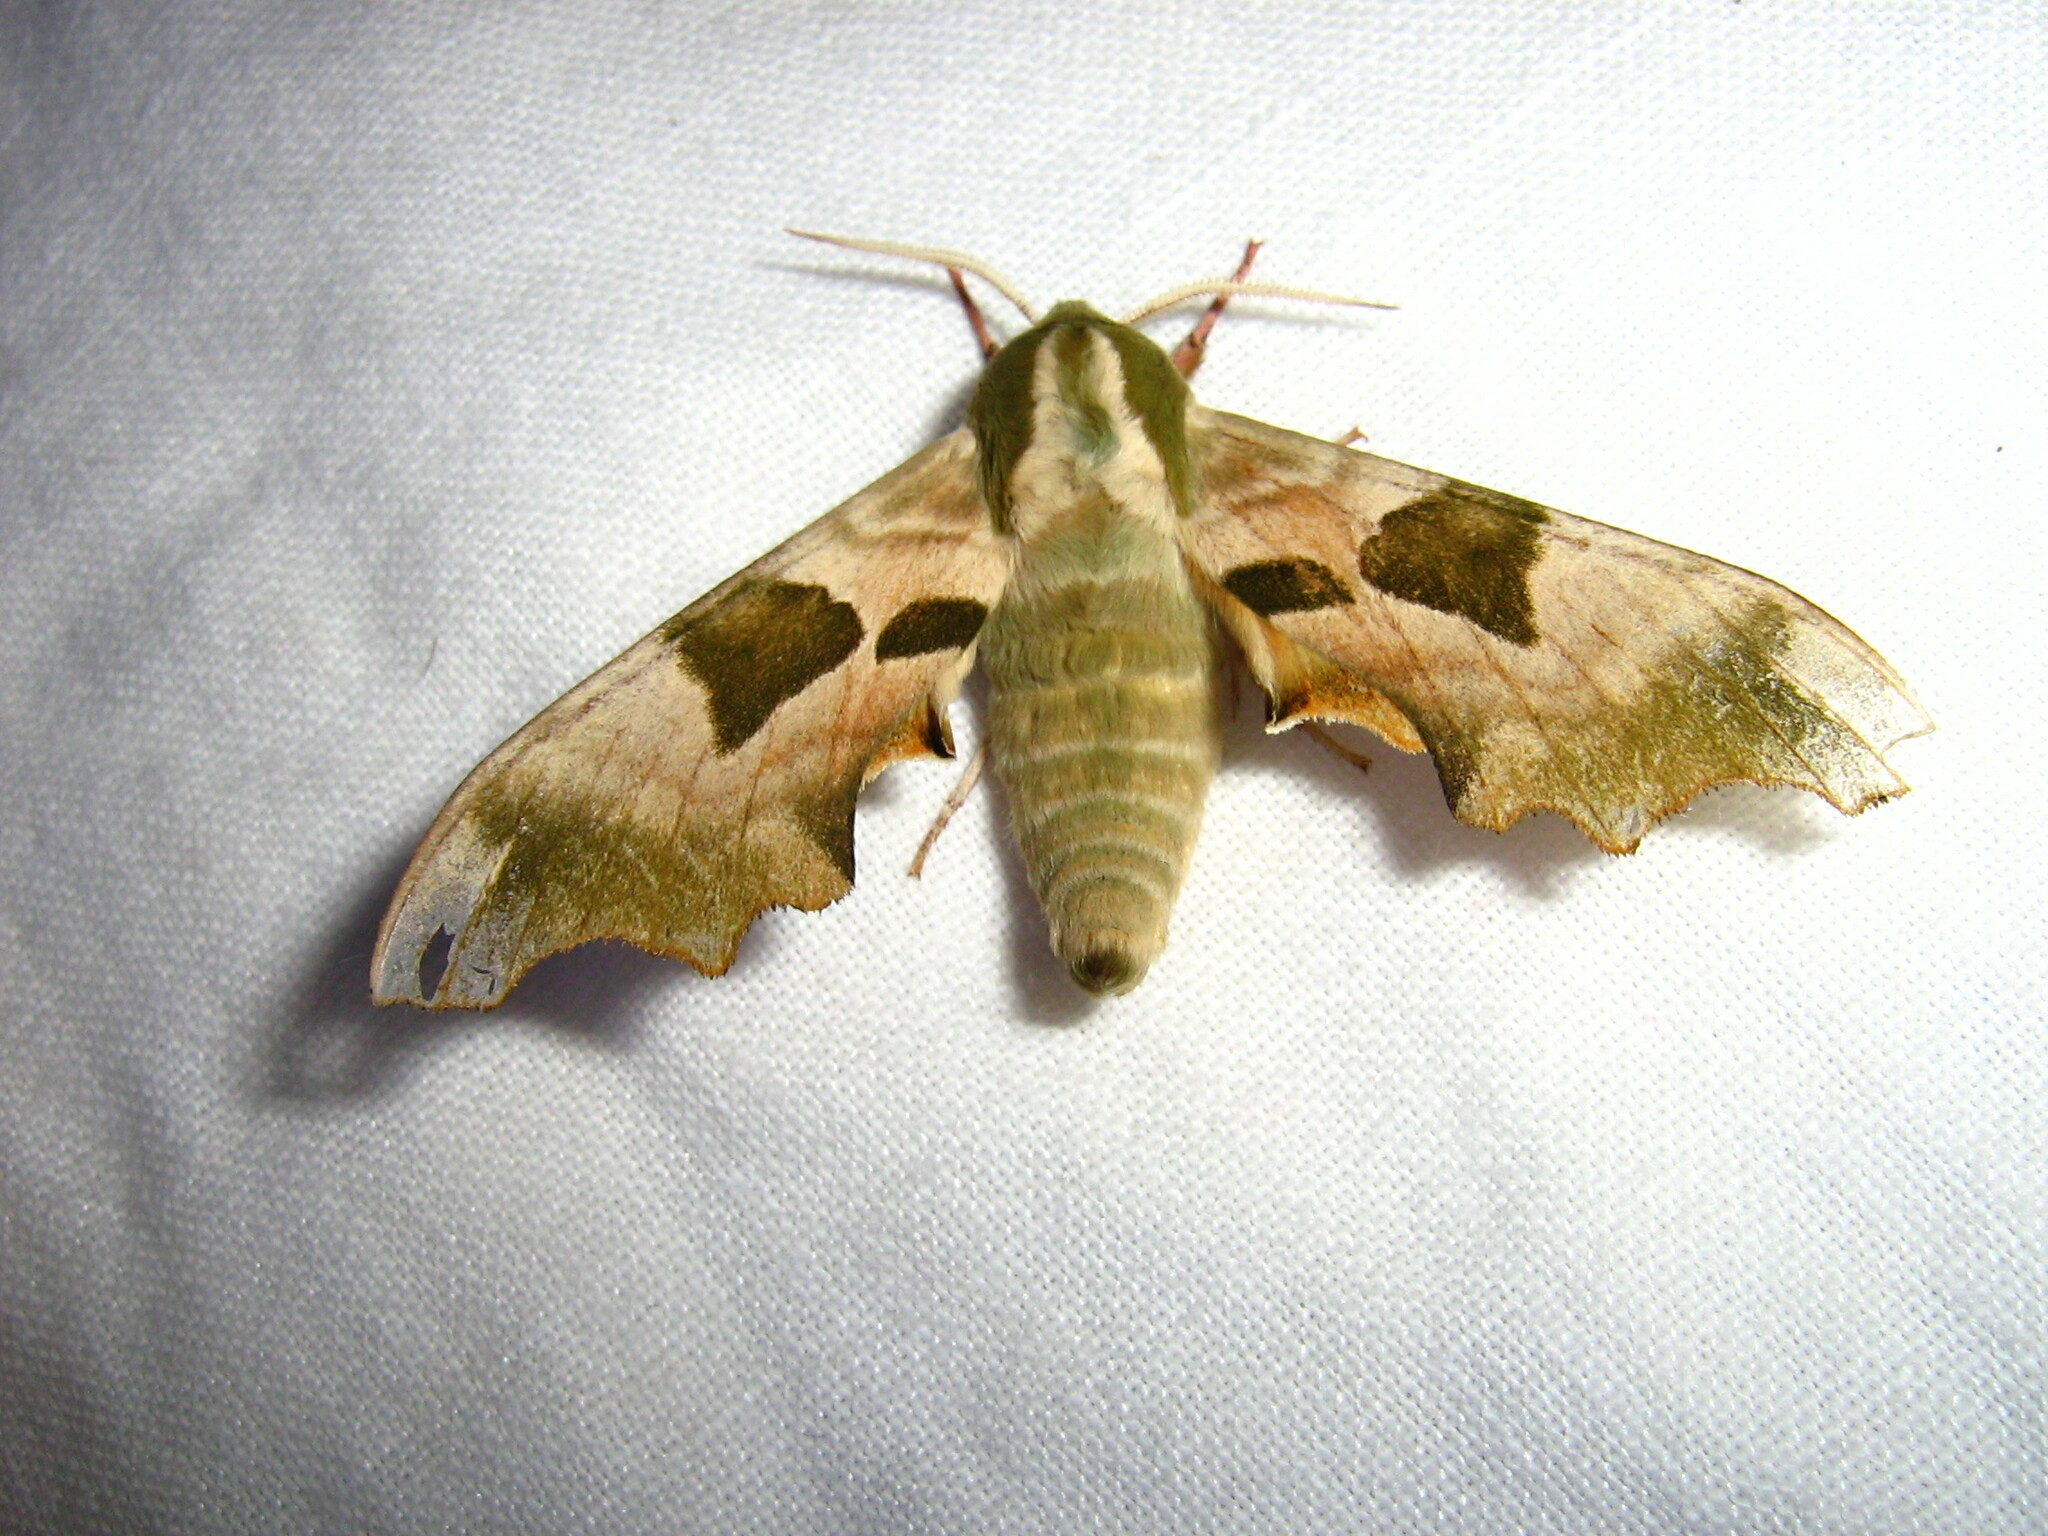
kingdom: Animalia
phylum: Arthropoda
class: Insecta
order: Lepidoptera
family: Sphingidae
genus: Mimas
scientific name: Mimas tiliae
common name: Lime hawk-moth
